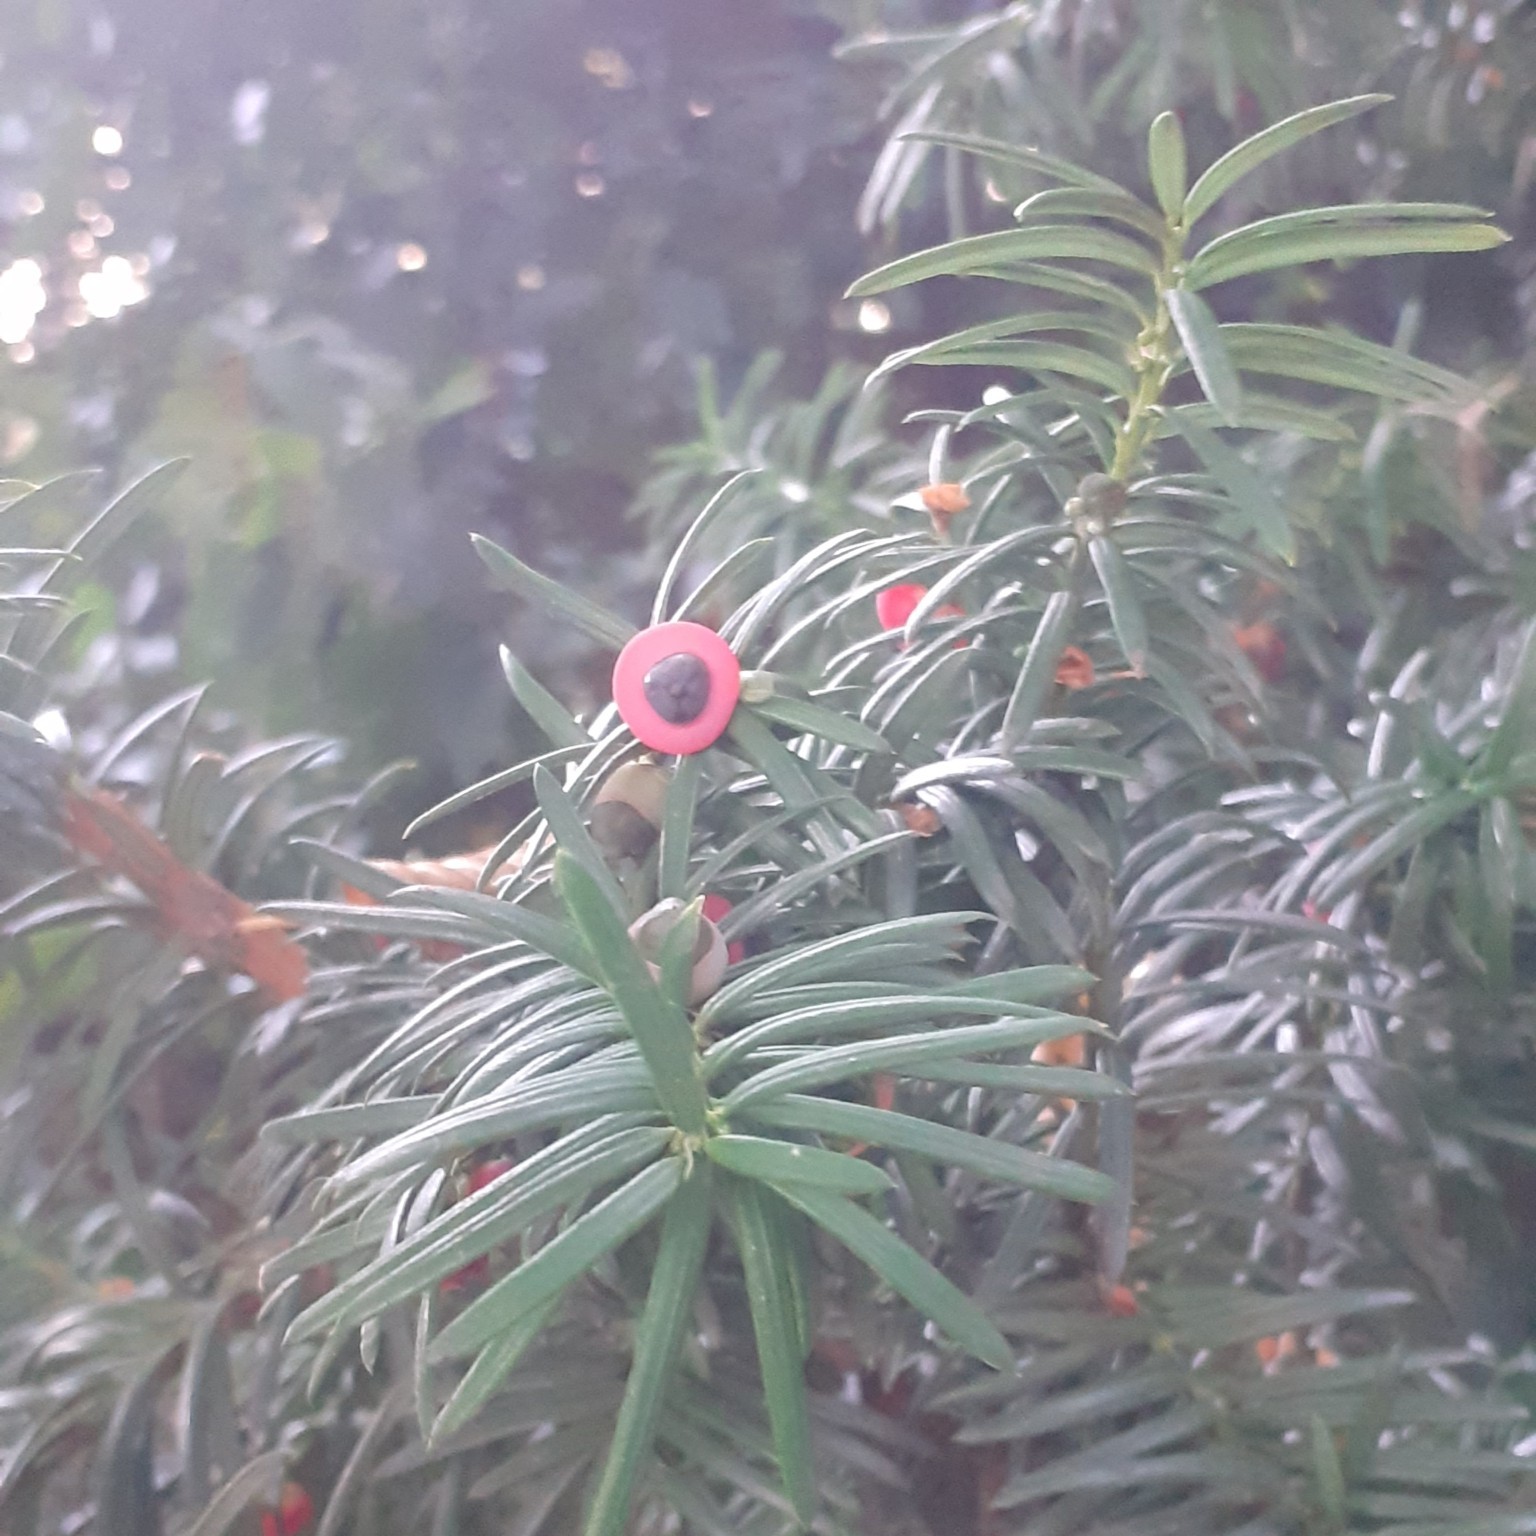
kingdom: Plantae
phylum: Tracheophyta
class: Pinopsida
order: Pinales
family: Taxaceae
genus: Taxus
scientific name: Taxus baccata
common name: Yew
